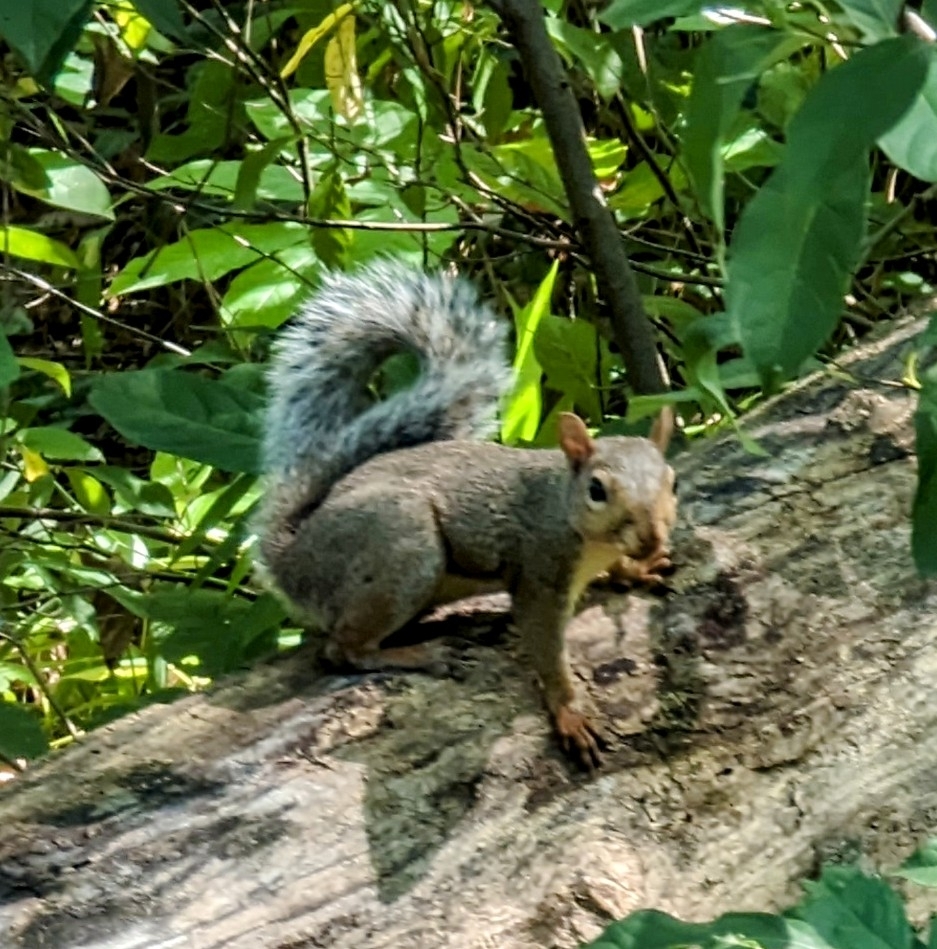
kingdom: Animalia
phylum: Chordata
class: Mammalia
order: Rodentia
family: Sciuridae
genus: Sciurus
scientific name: Sciurus carolinensis
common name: Eastern gray squirrel
